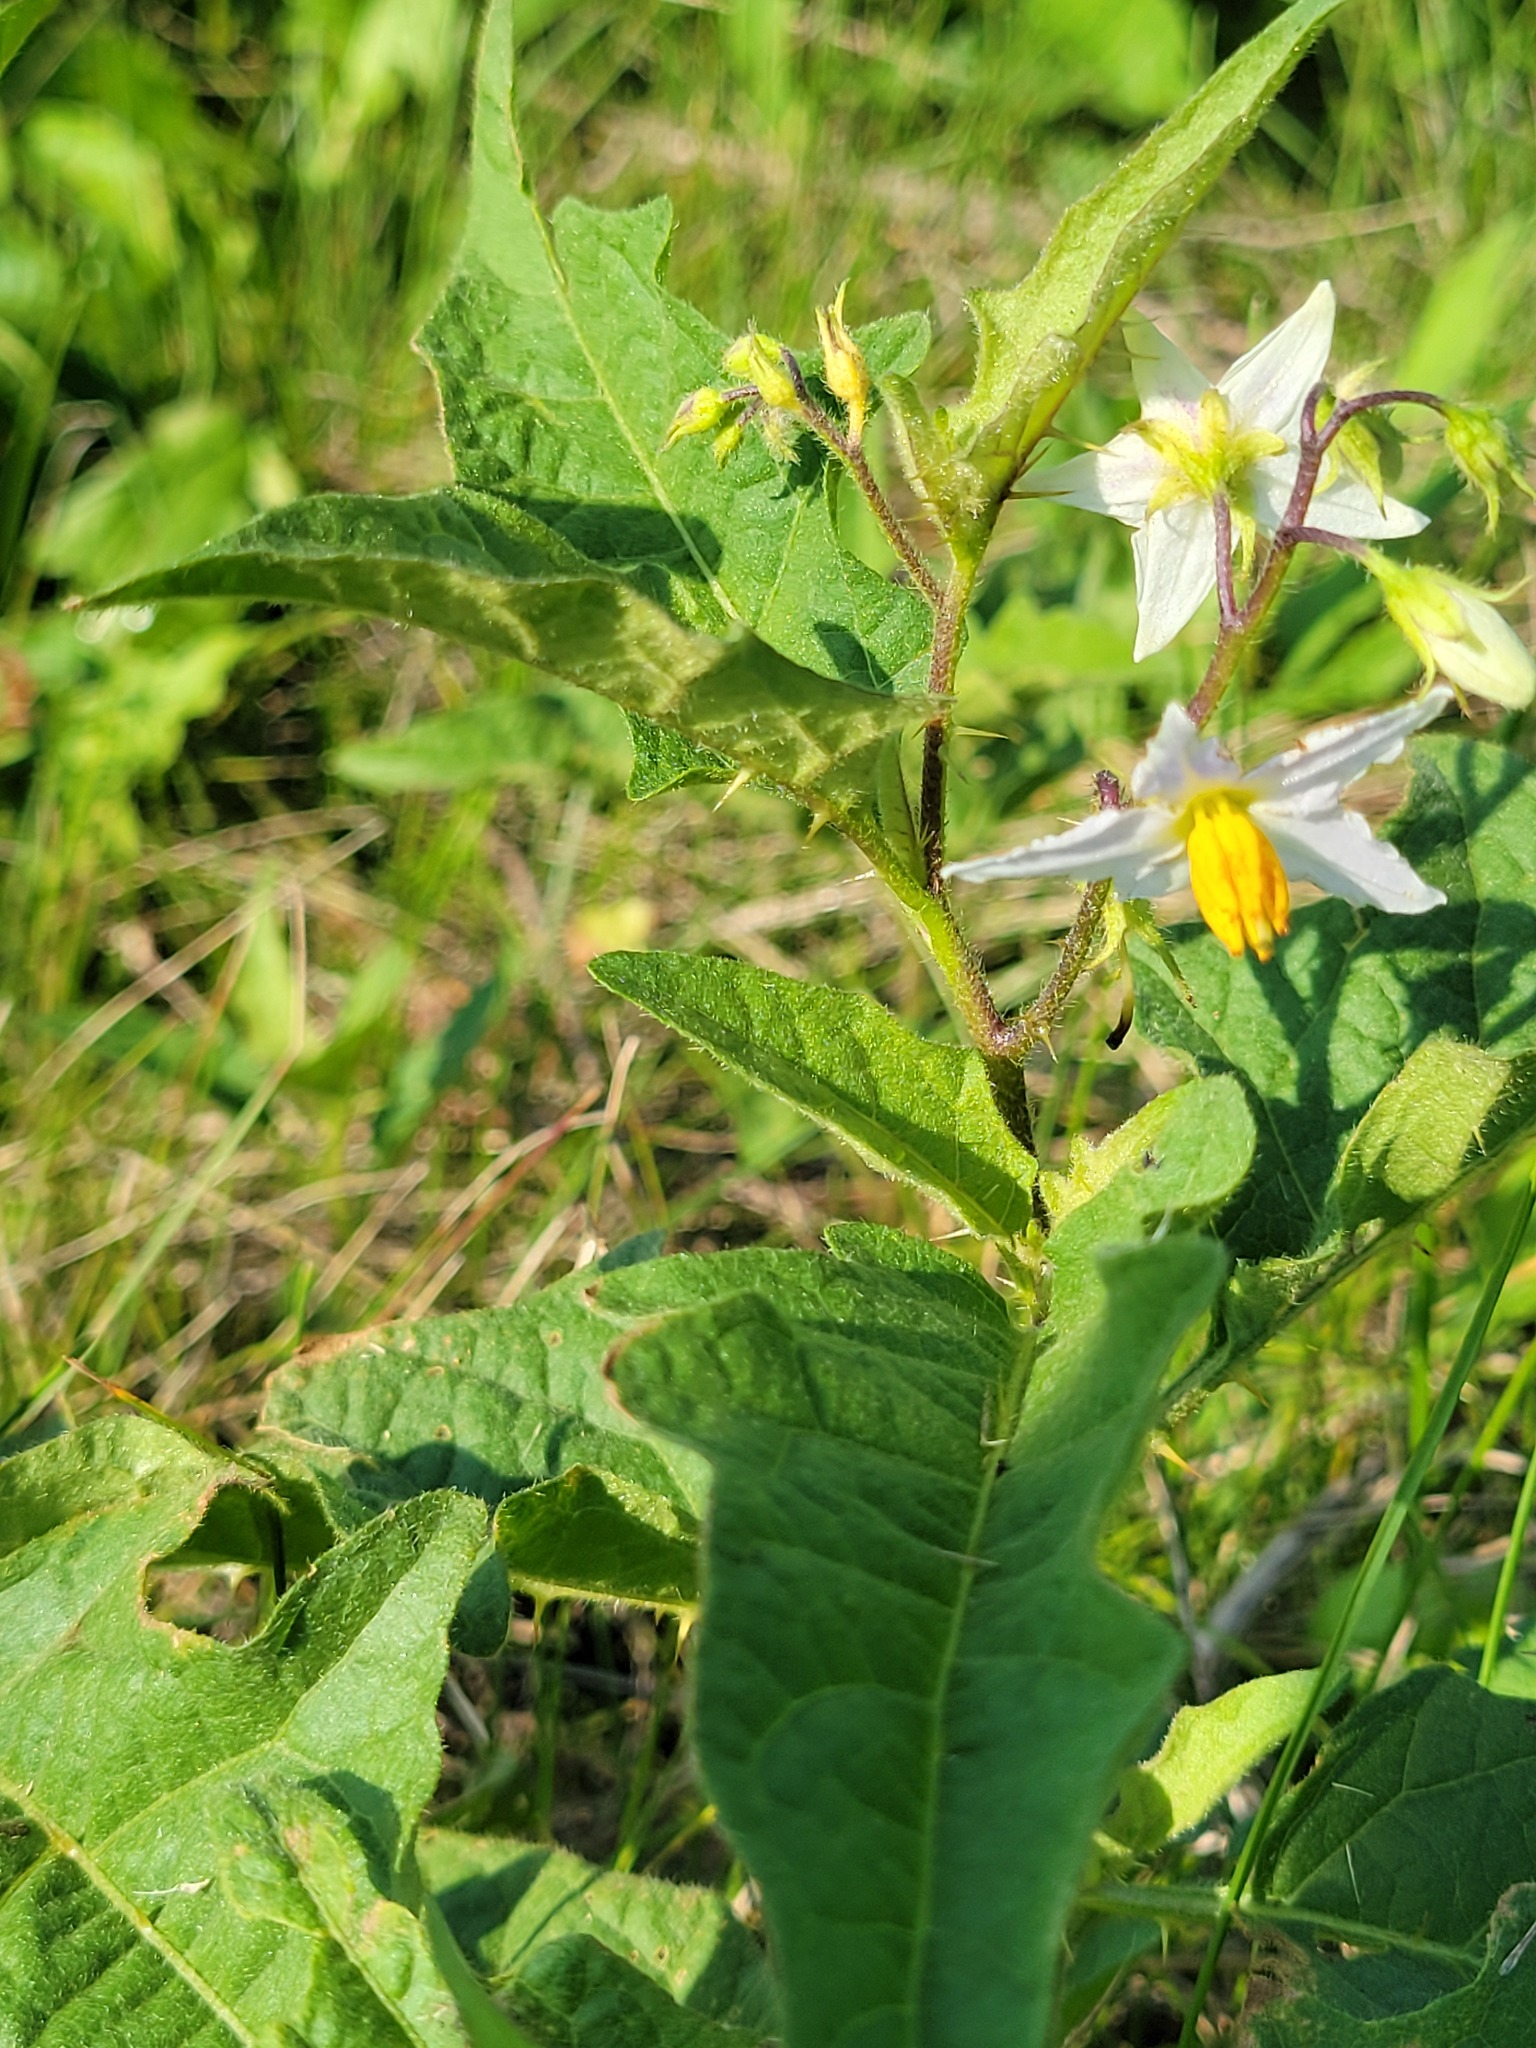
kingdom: Plantae
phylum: Tracheophyta
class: Magnoliopsida
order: Solanales
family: Solanaceae
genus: Solanum
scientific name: Solanum carolinense
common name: Horse-nettle
